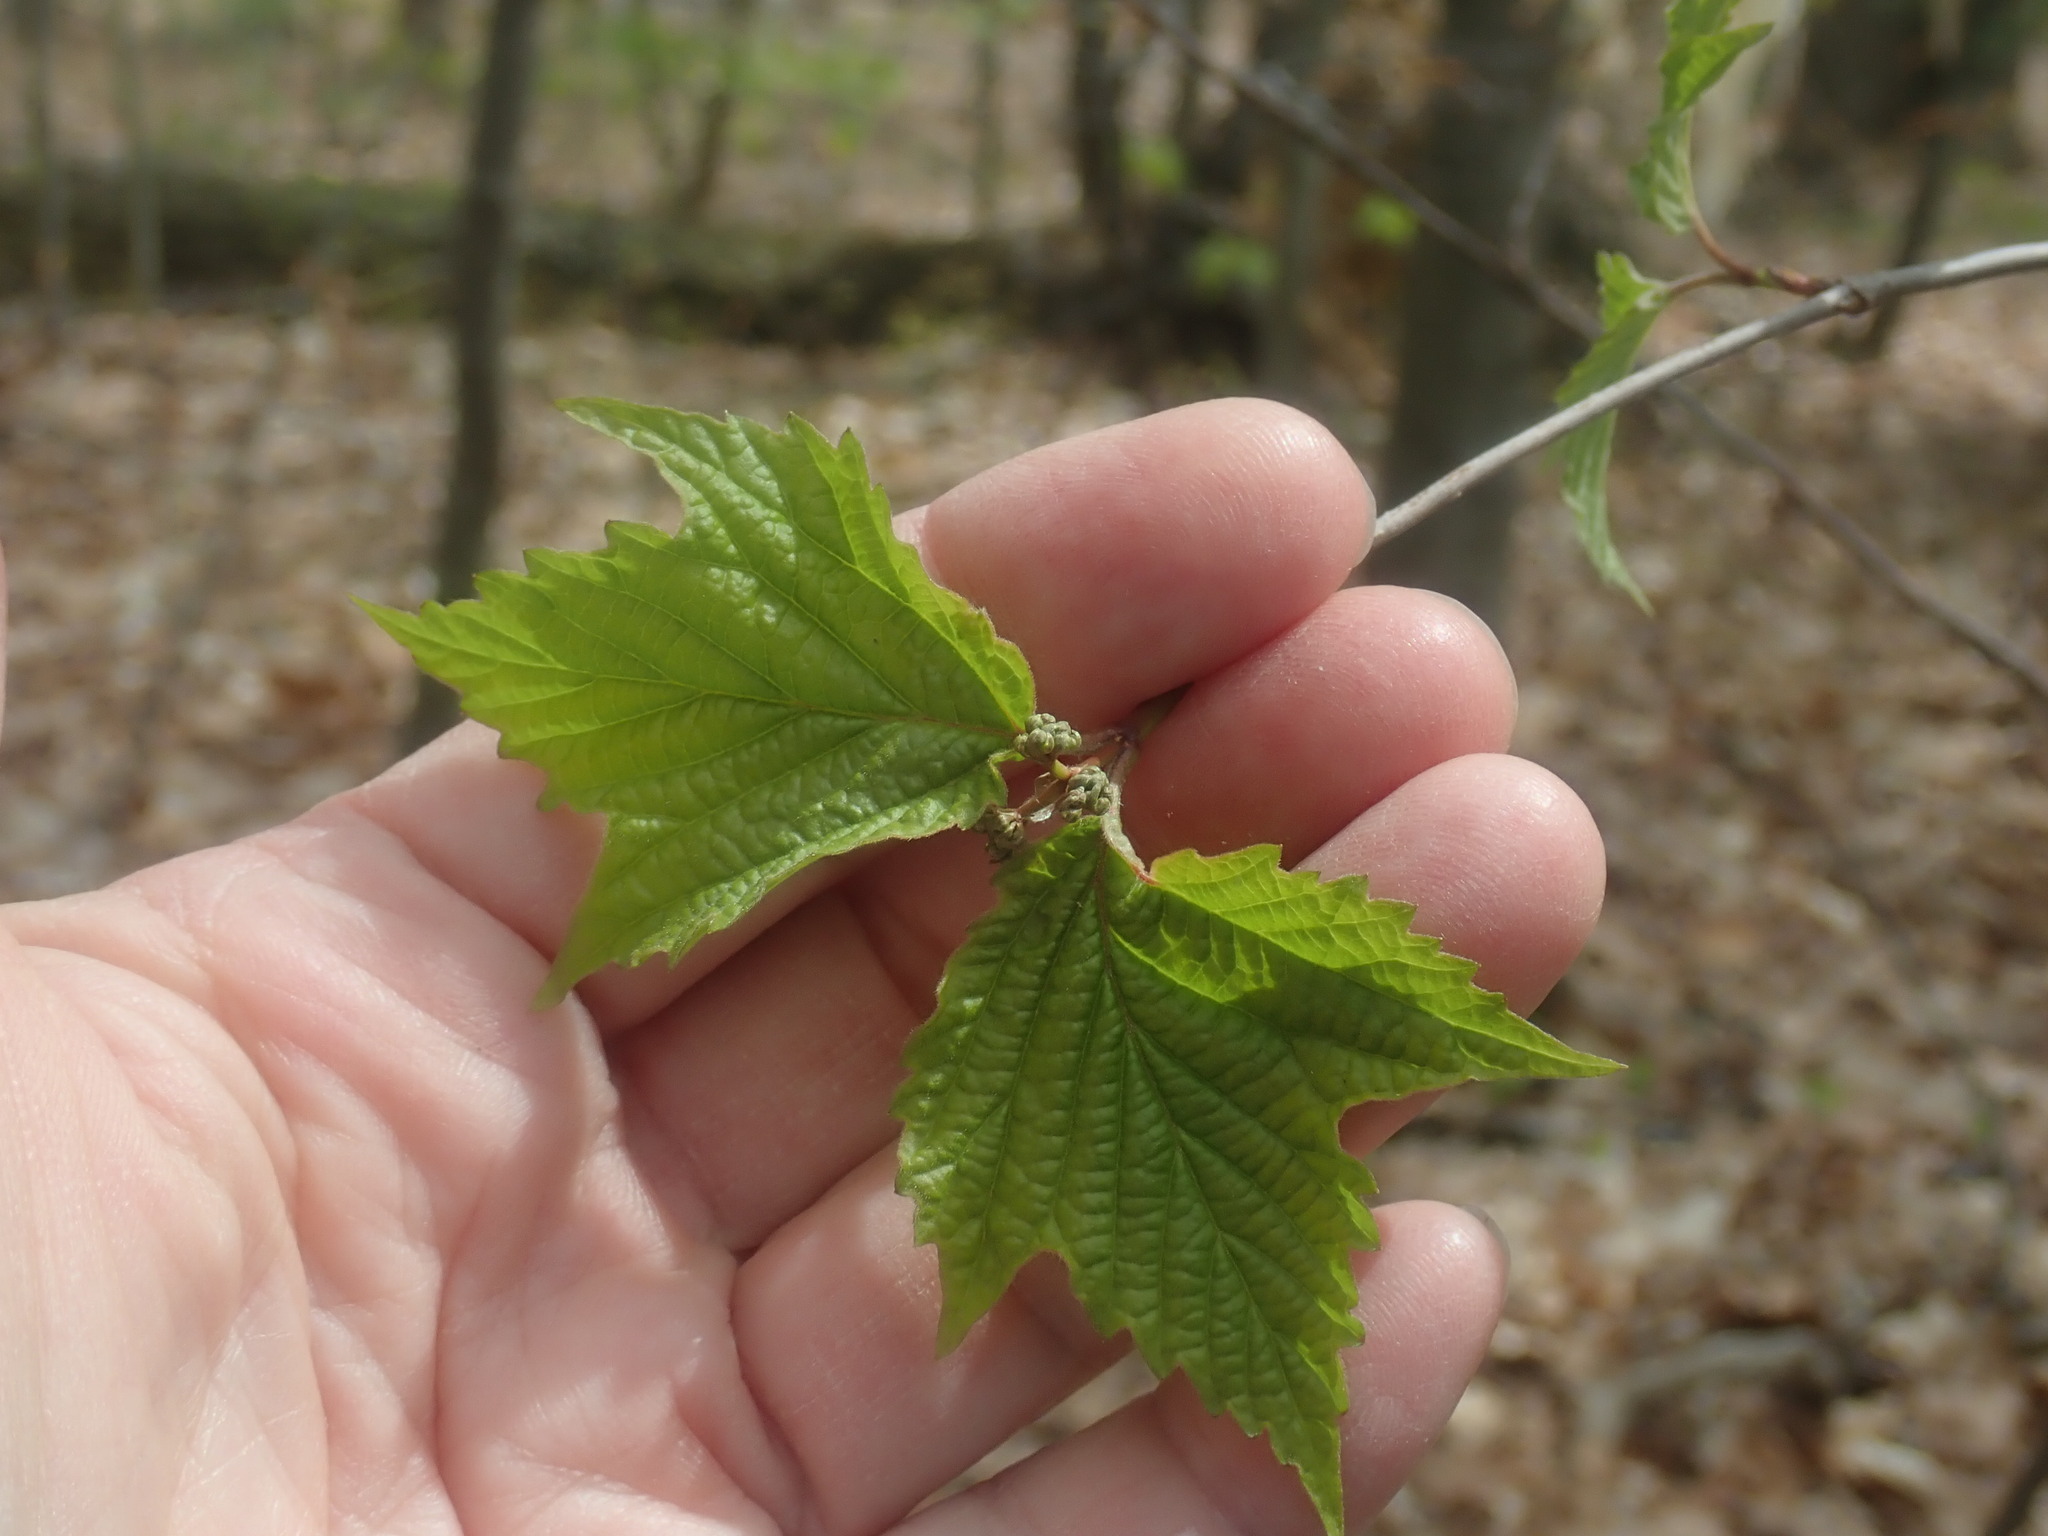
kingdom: Plantae
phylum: Tracheophyta
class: Magnoliopsida
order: Dipsacales
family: Viburnaceae
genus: Viburnum
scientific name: Viburnum acerifolium
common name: Dockmackie
